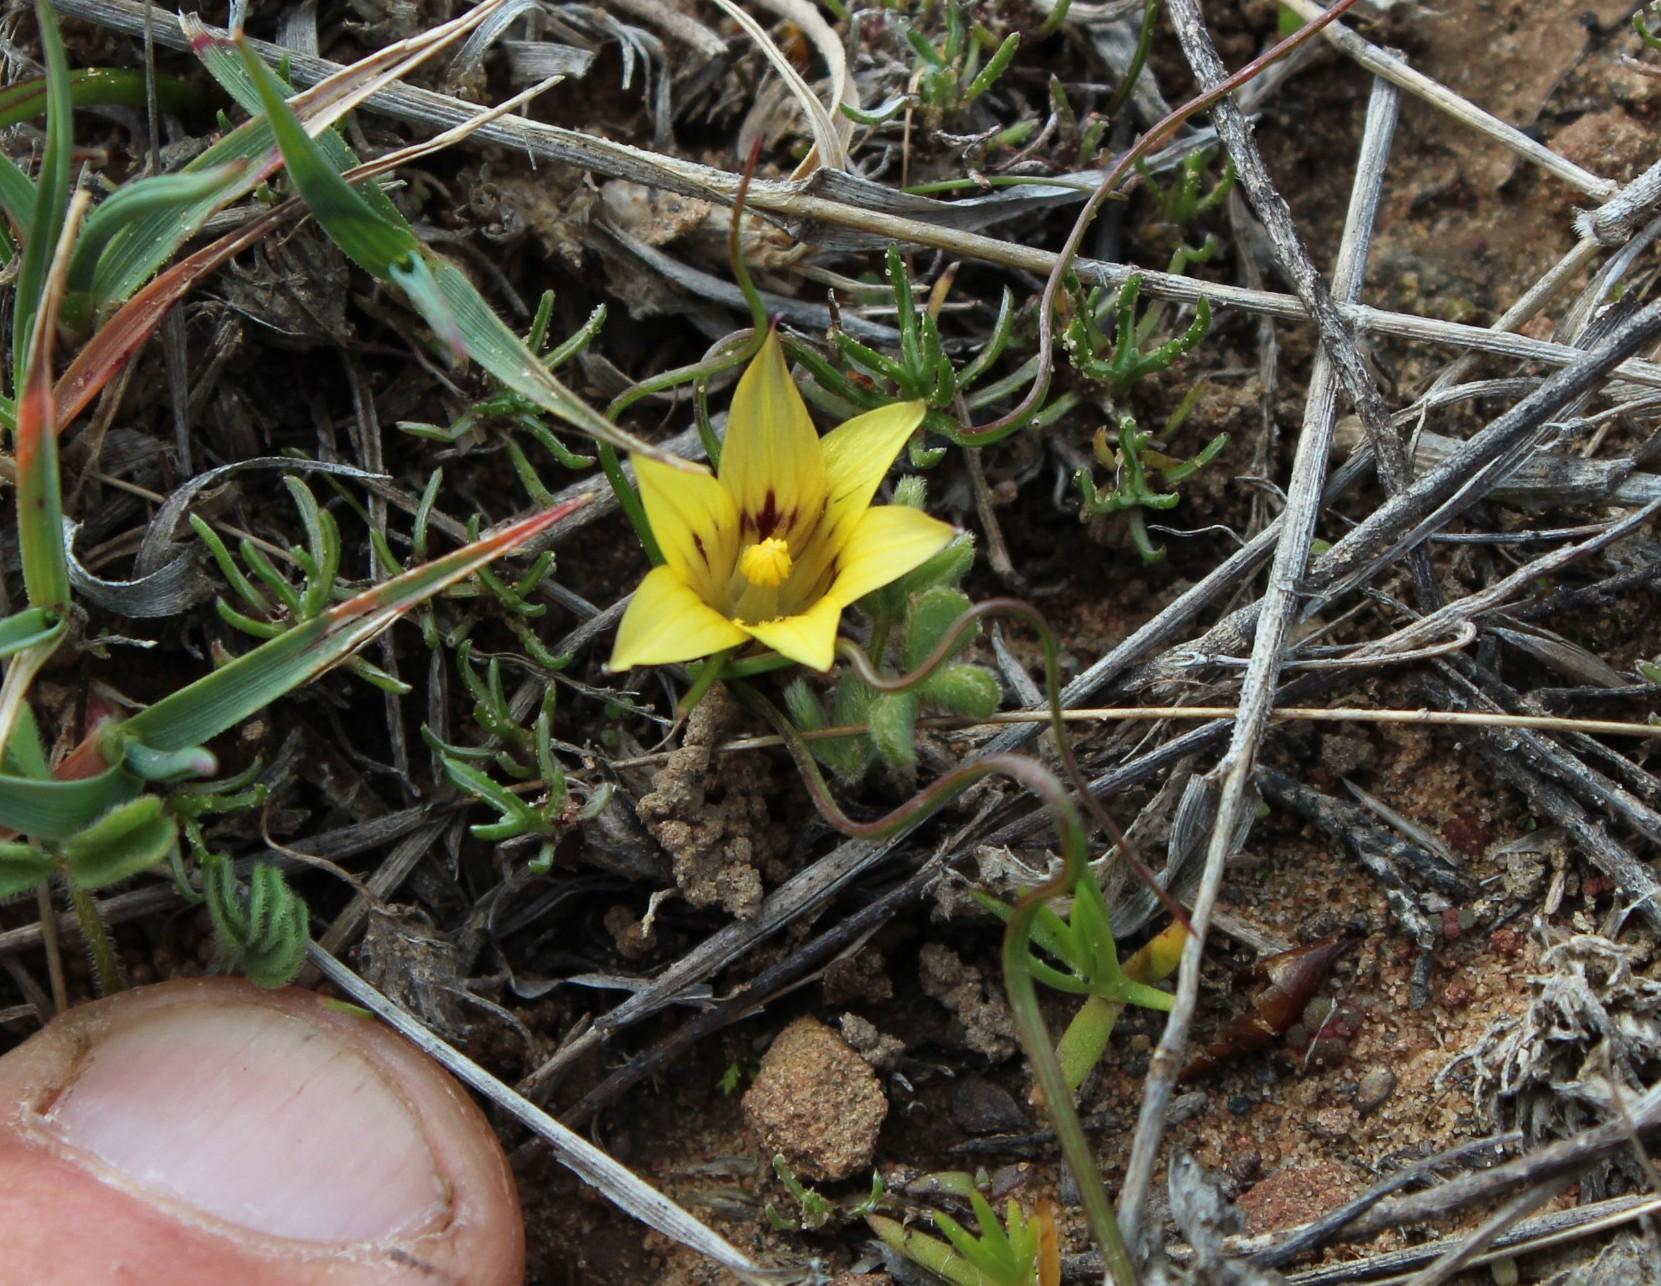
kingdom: Plantae
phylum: Tracheophyta
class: Liliopsida
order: Asparagales
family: Iridaceae
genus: Romulea
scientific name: Romulea austinii
